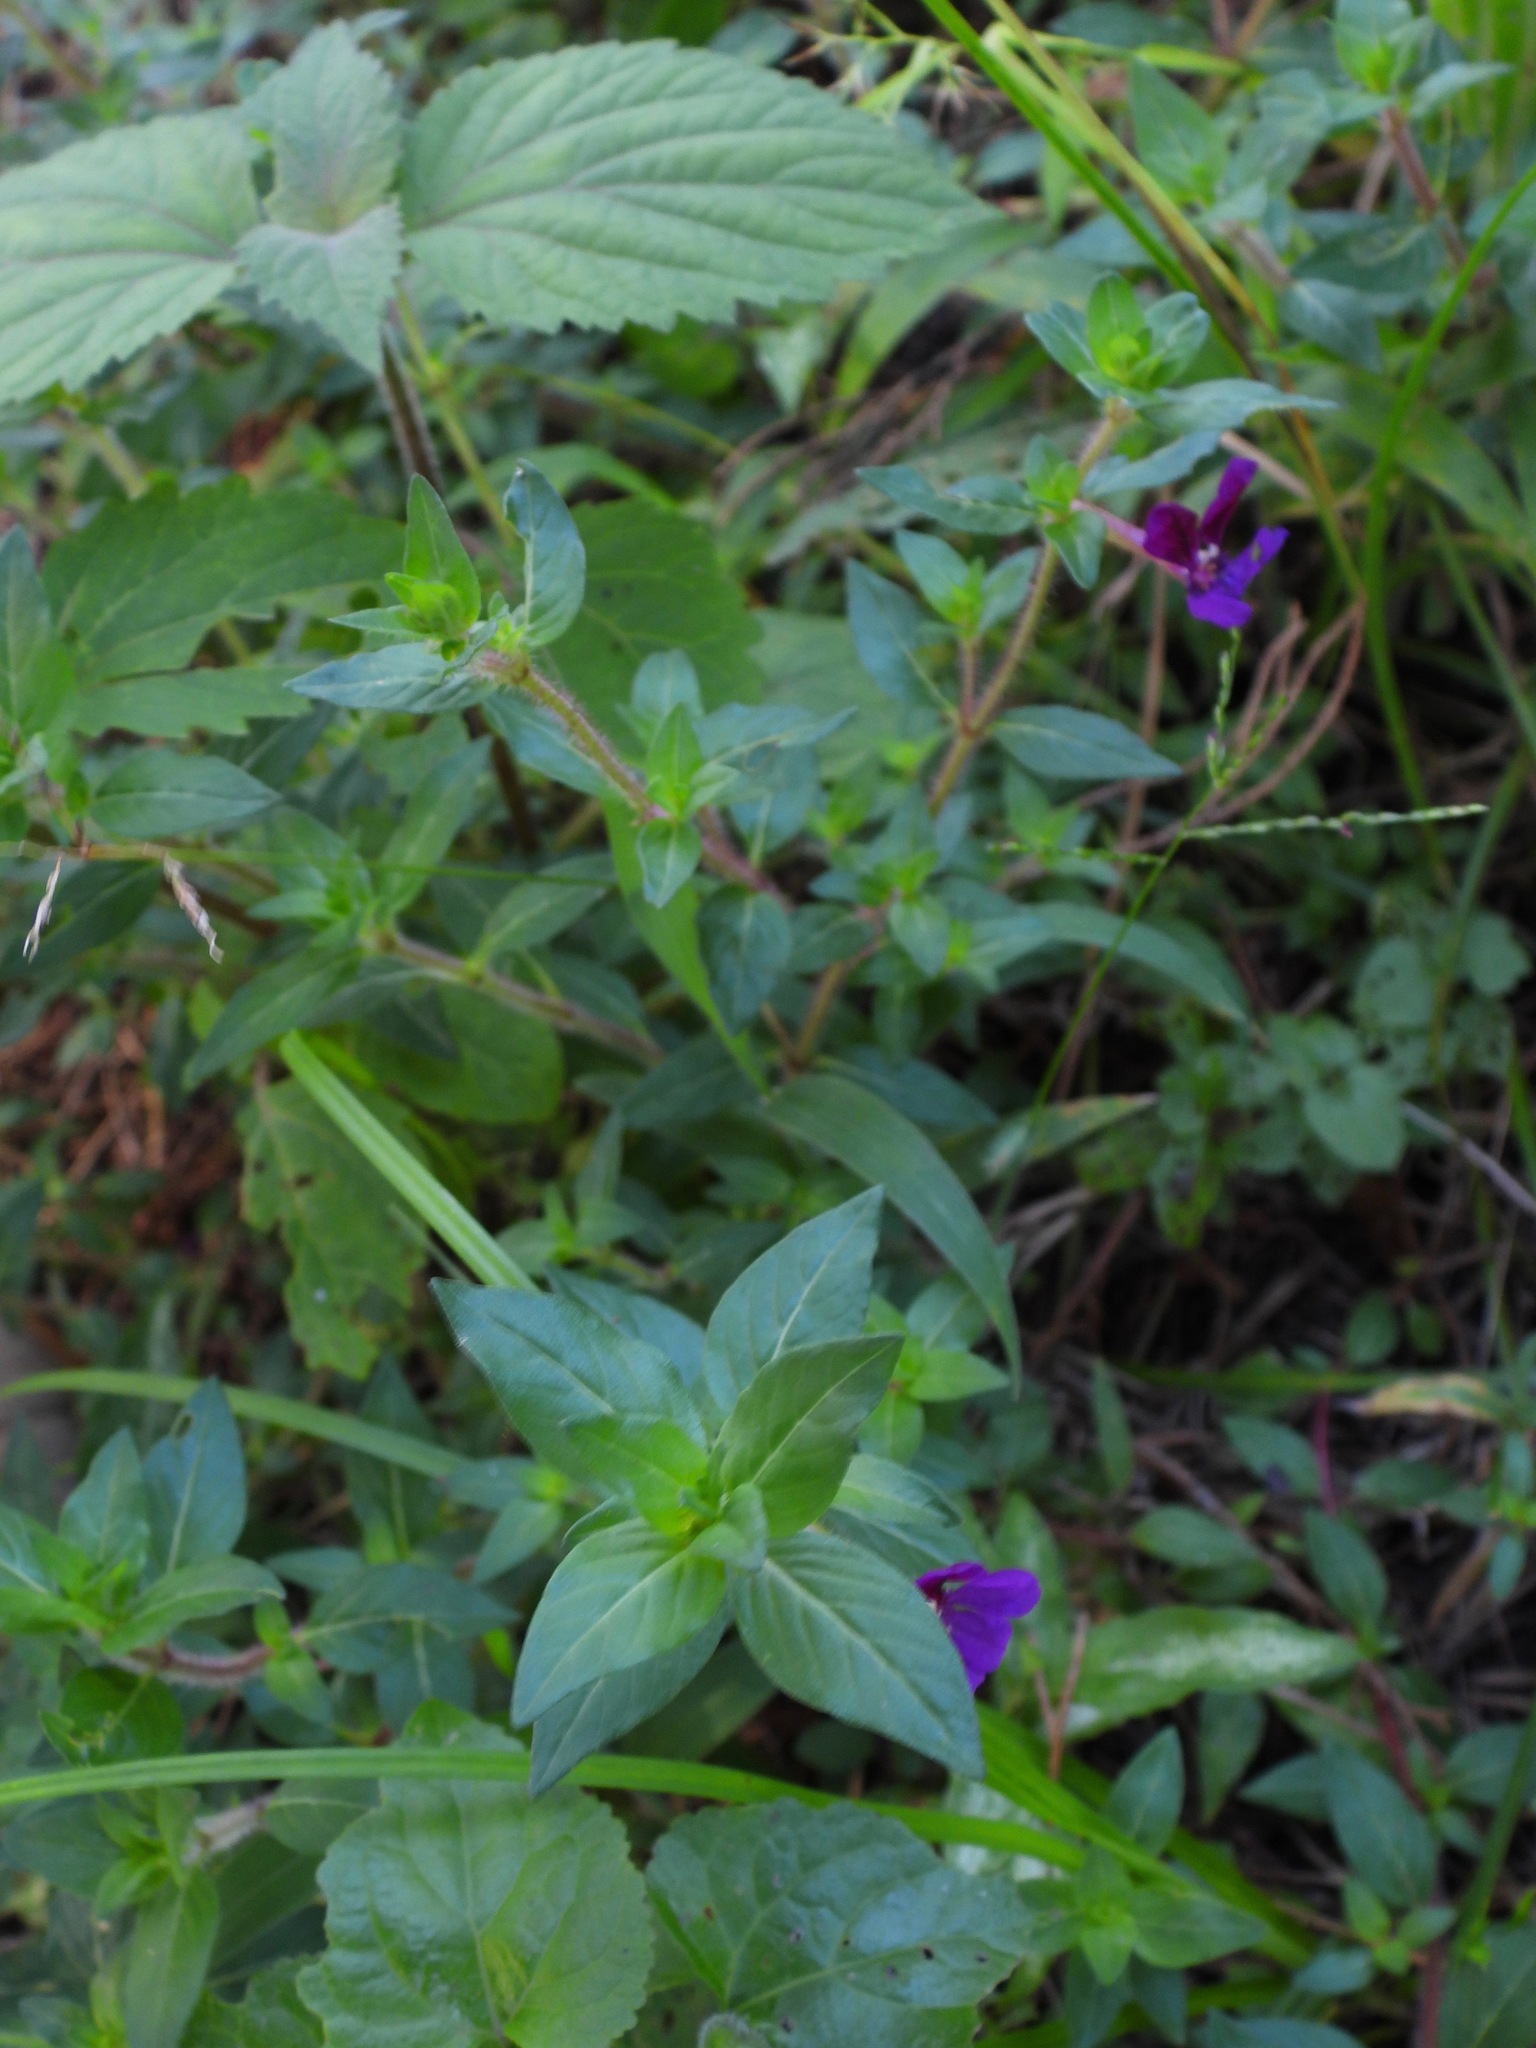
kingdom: Plantae
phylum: Tracheophyta
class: Magnoliopsida
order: Myrtales
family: Lythraceae
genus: Cuphea
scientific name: Cuphea aequipetala
